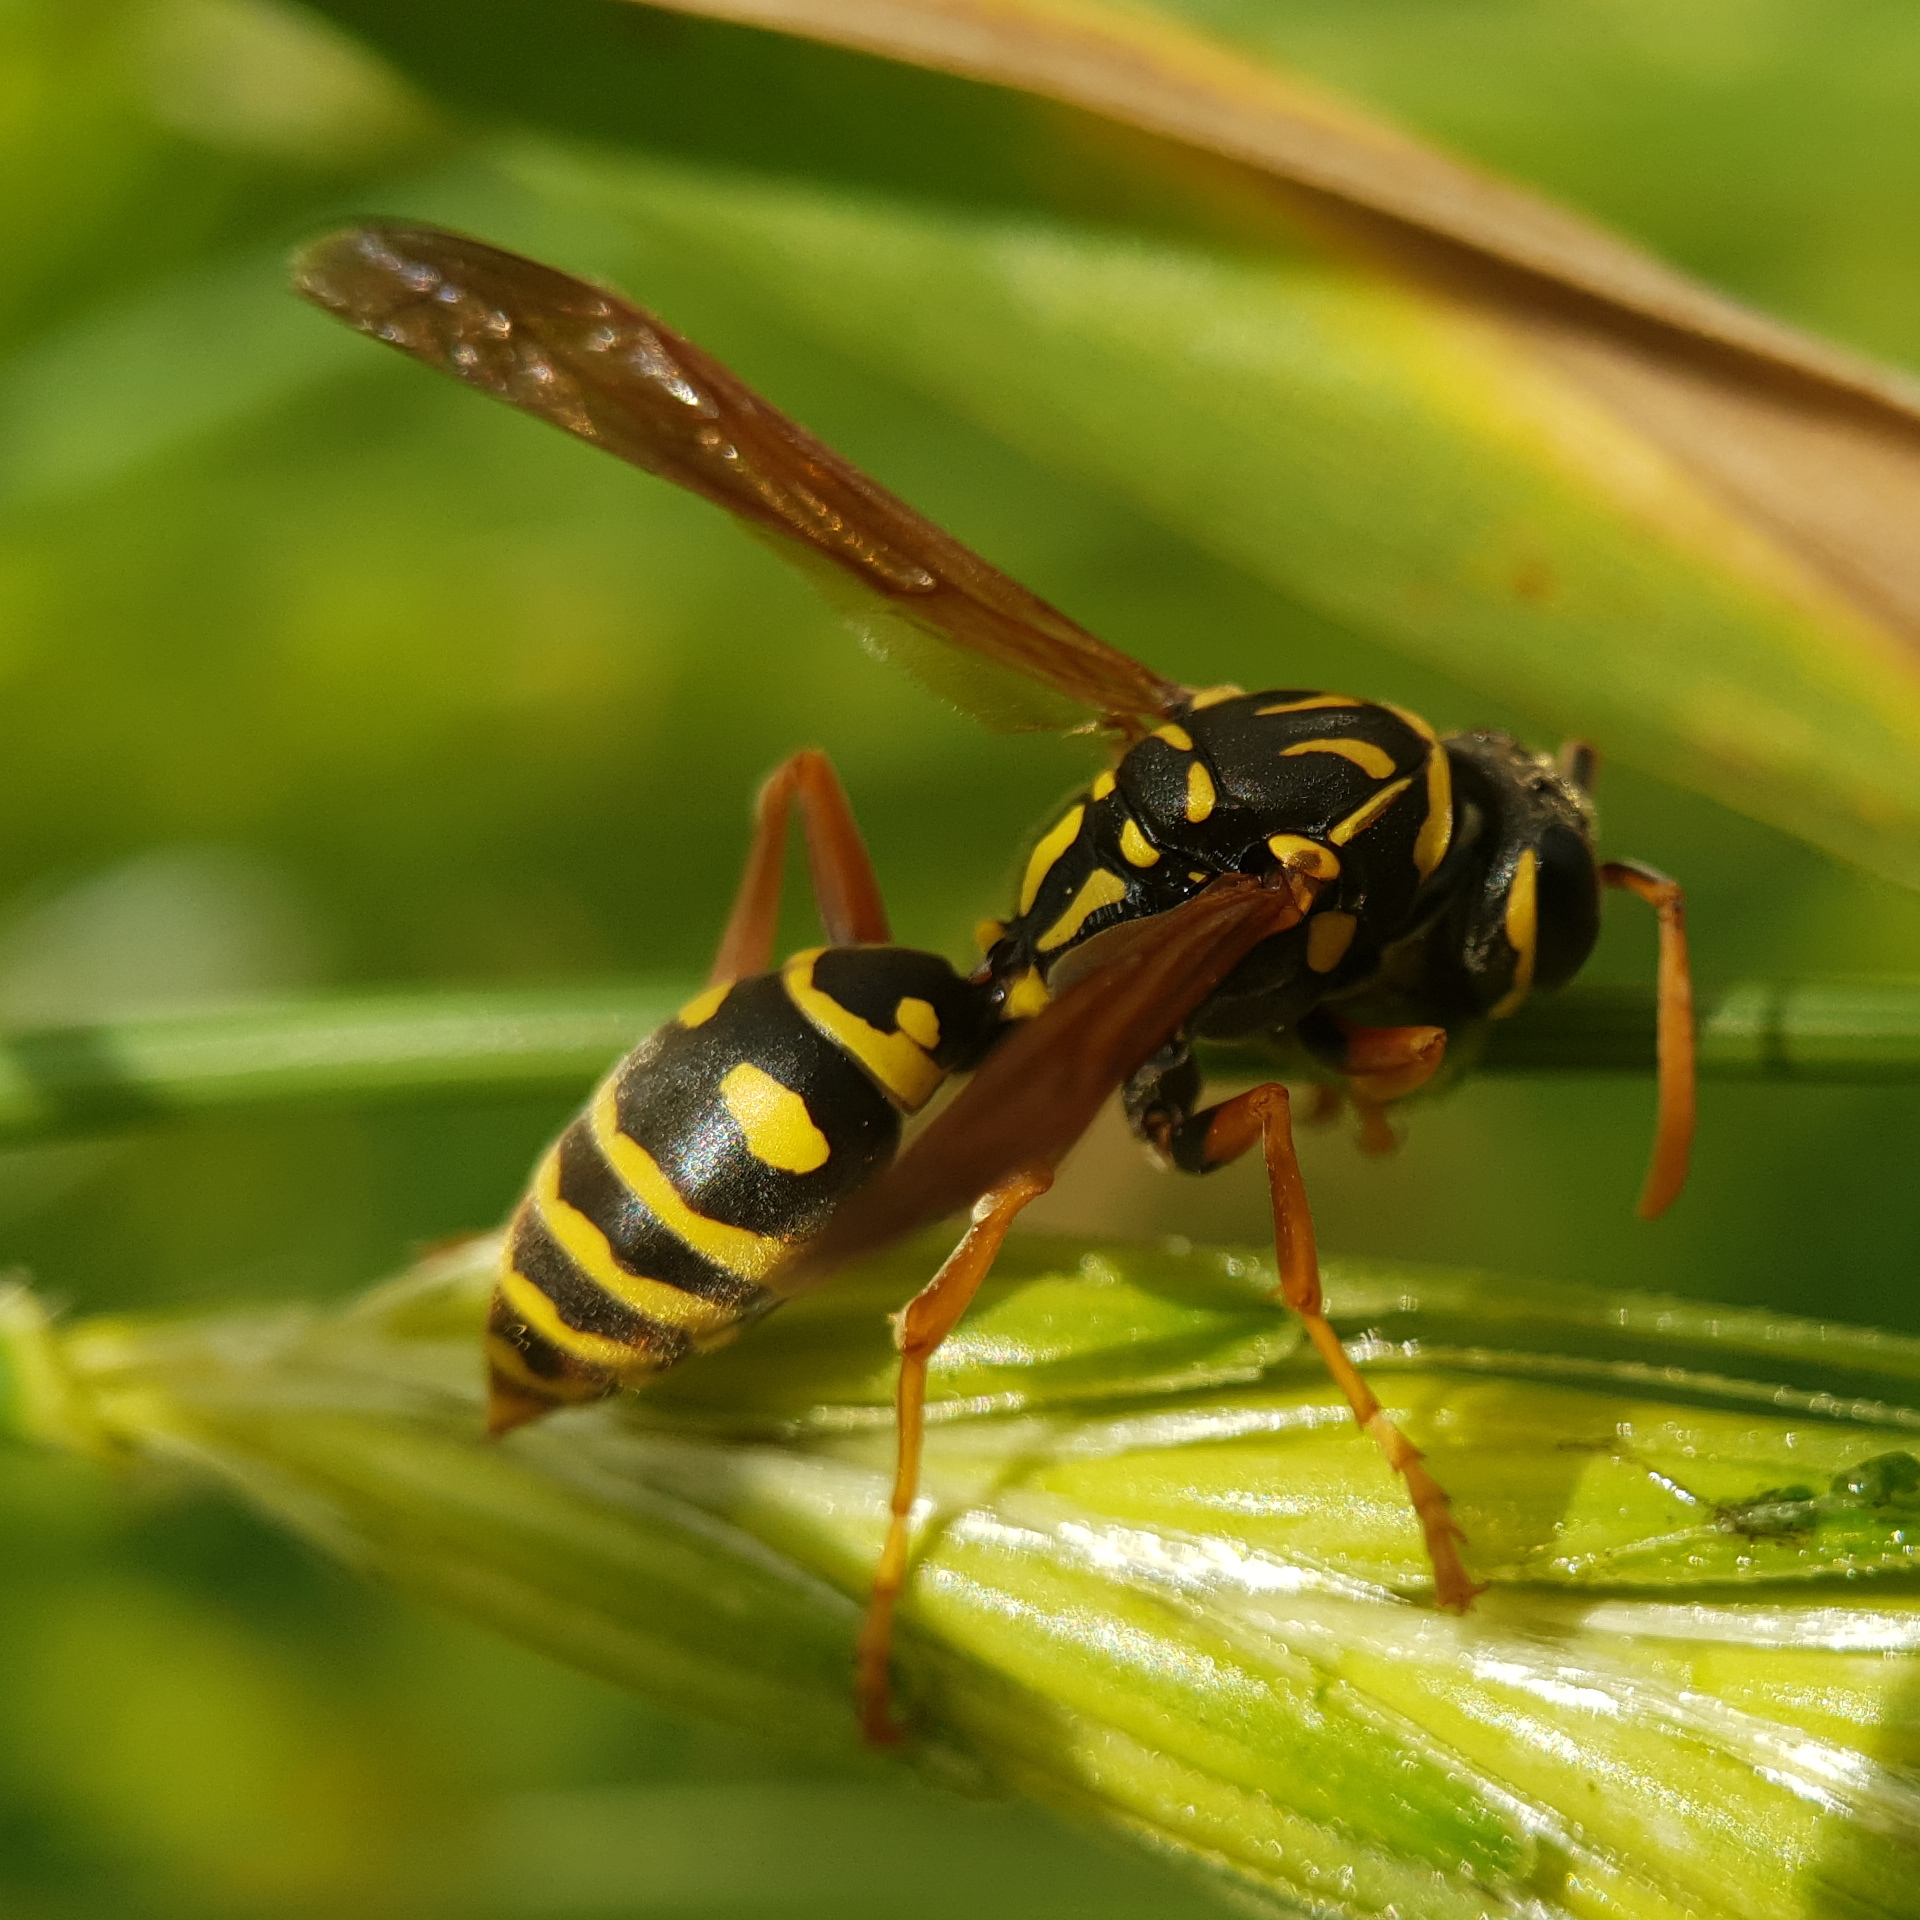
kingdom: Animalia
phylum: Arthropoda
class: Insecta
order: Hymenoptera
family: Eumenidae
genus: Polistes
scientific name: Polistes dominula
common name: Paper wasp
